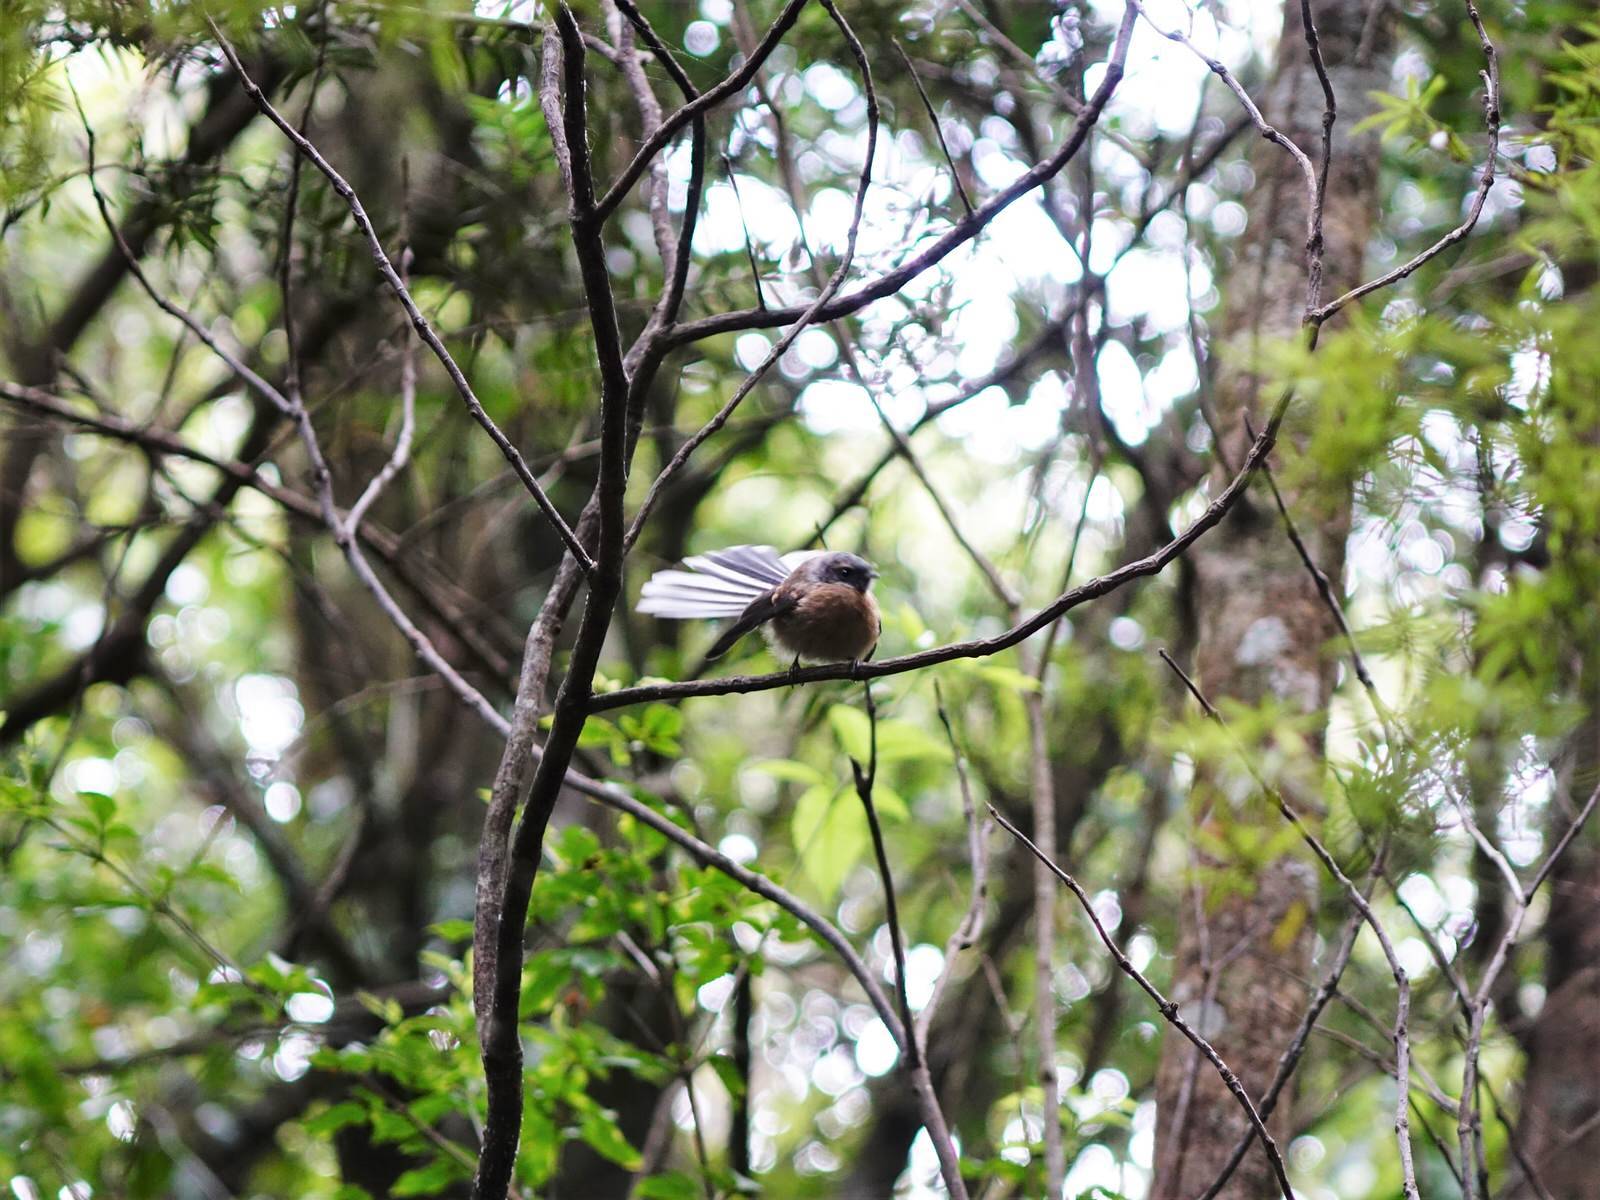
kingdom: Animalia
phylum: Chordata
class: Aves
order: Passeriformes
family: Rhipiduridae
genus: Rhipidura
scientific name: Rhipidura fuliginosa
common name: New zealand fantail
